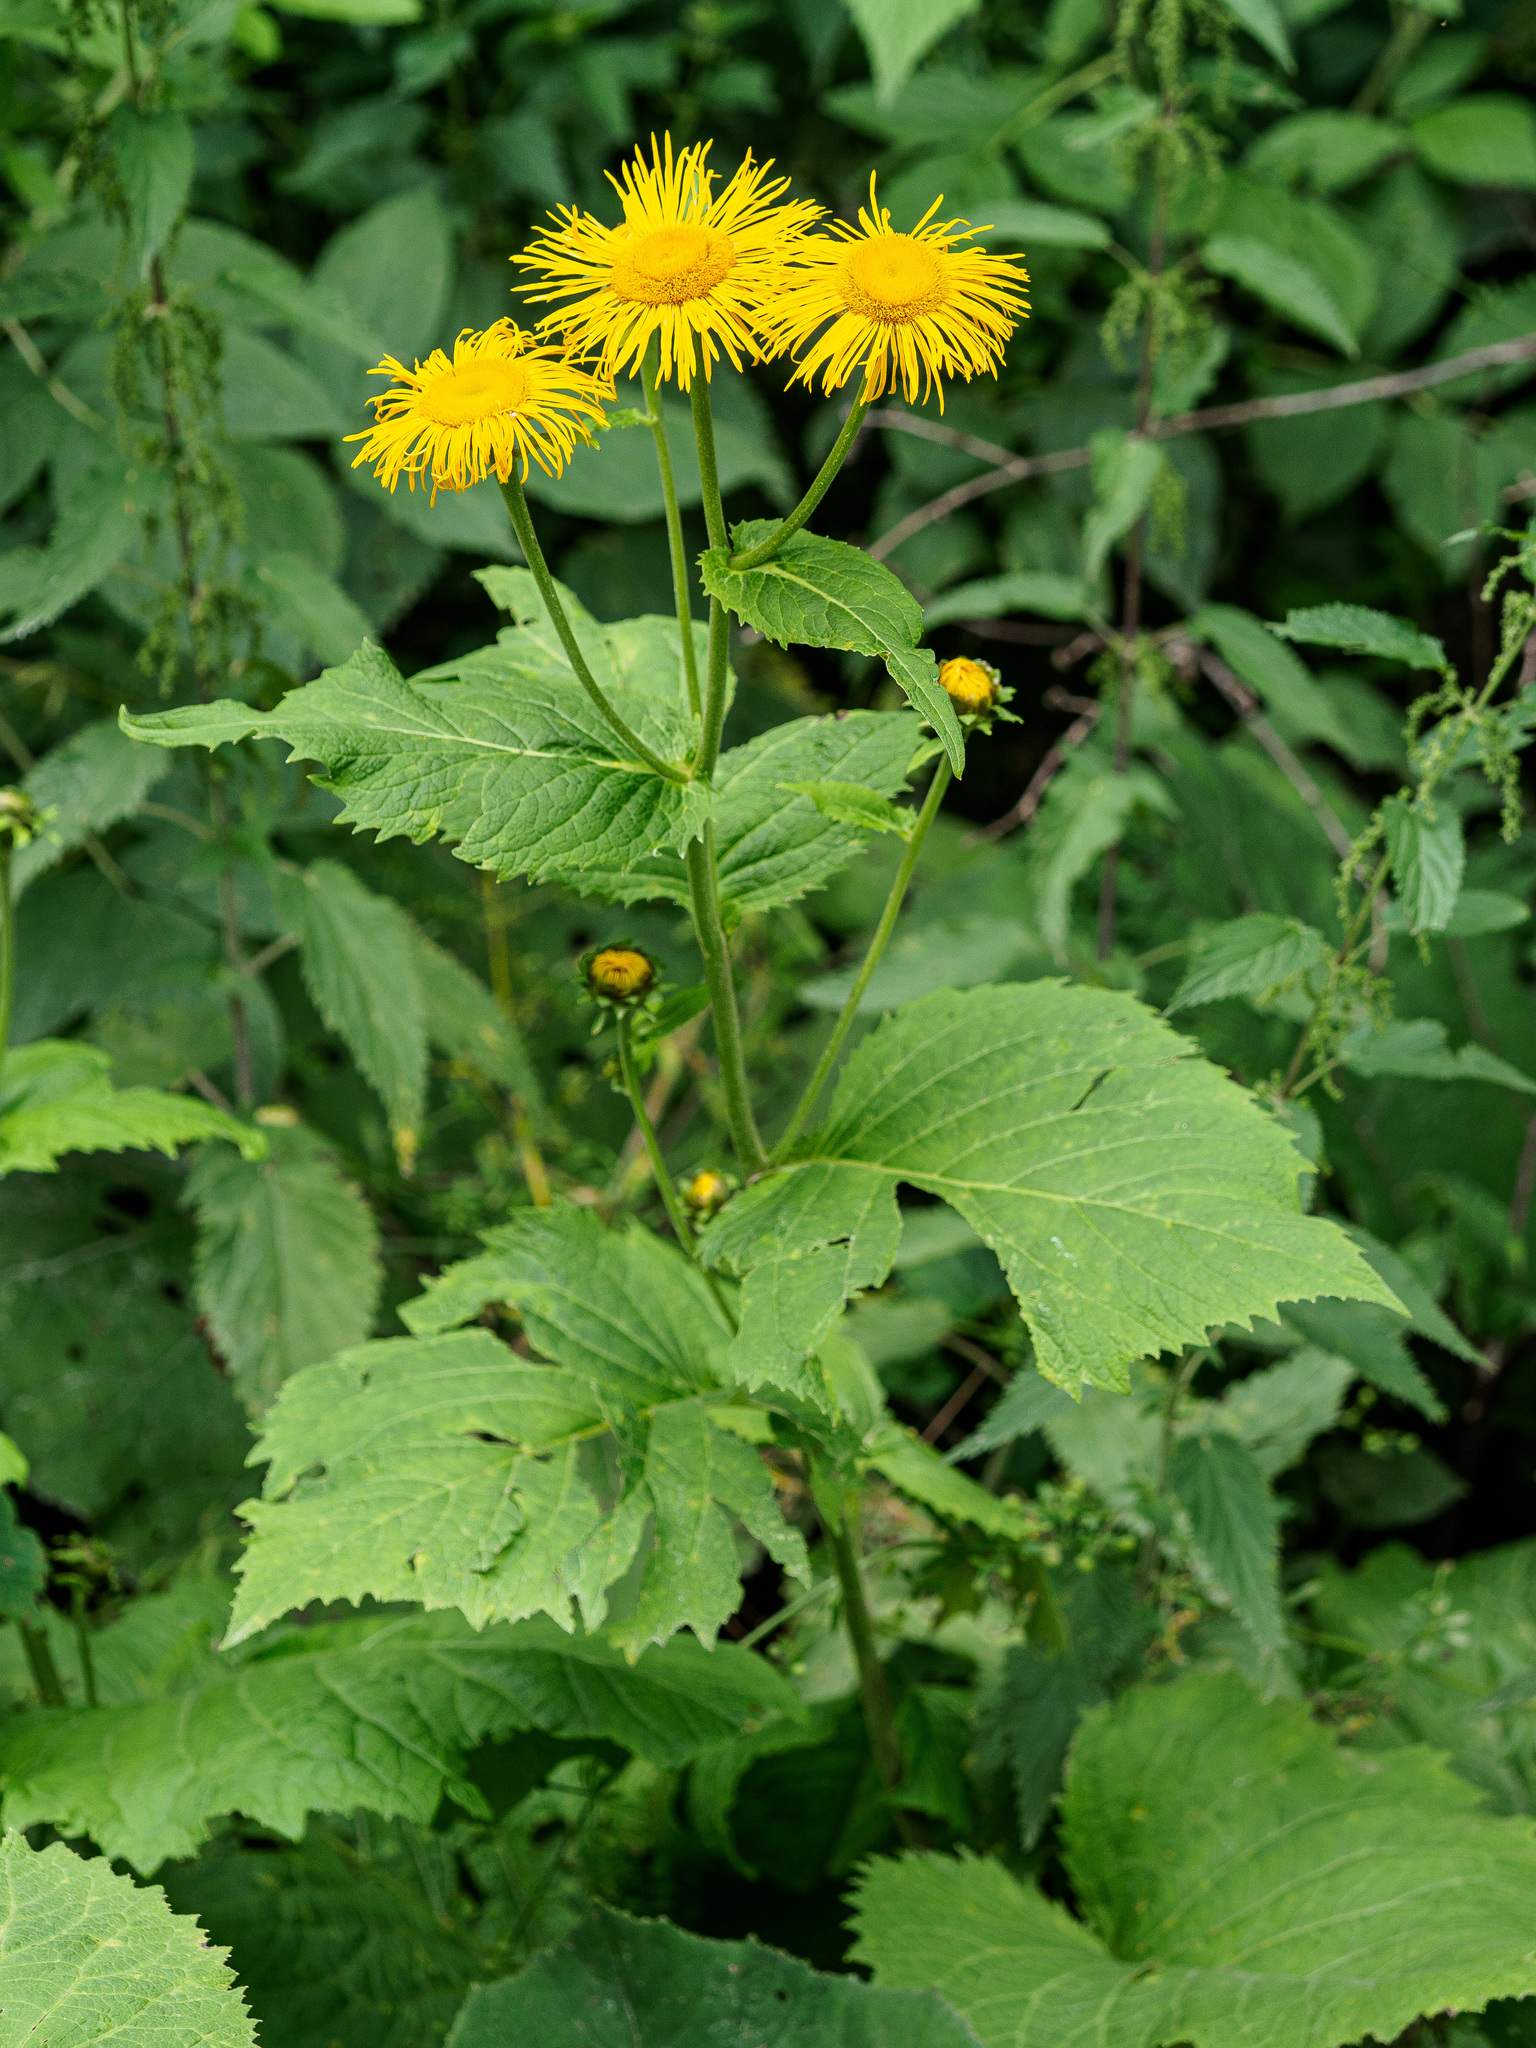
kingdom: Plantae
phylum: Tracheophyta
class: Magnoliopsida
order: Asterales
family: Asteraceae
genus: Telekia
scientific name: Telekia speciosa
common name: Yellow oxeye
